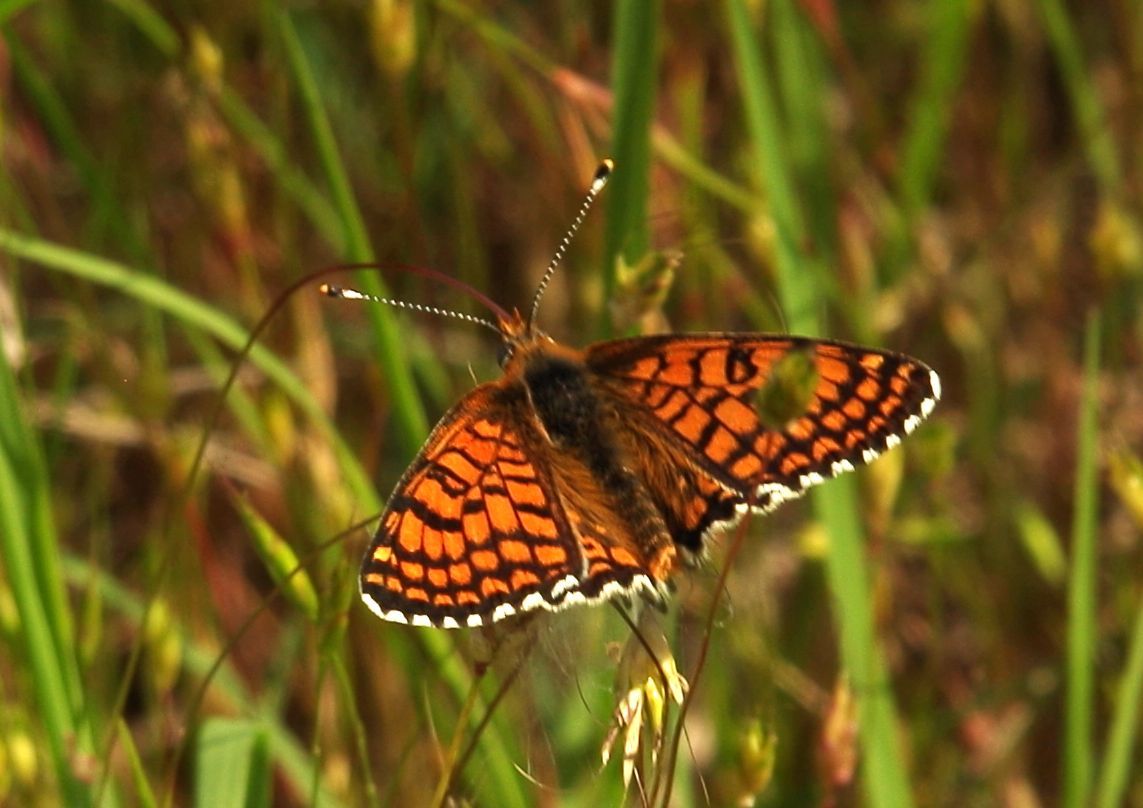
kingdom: Animalia
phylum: Arthropoda
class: Insecta
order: Lepidoptera
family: Nymphalidae
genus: Melitaea
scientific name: Melitaea cinxia
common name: Glanville fritillary
